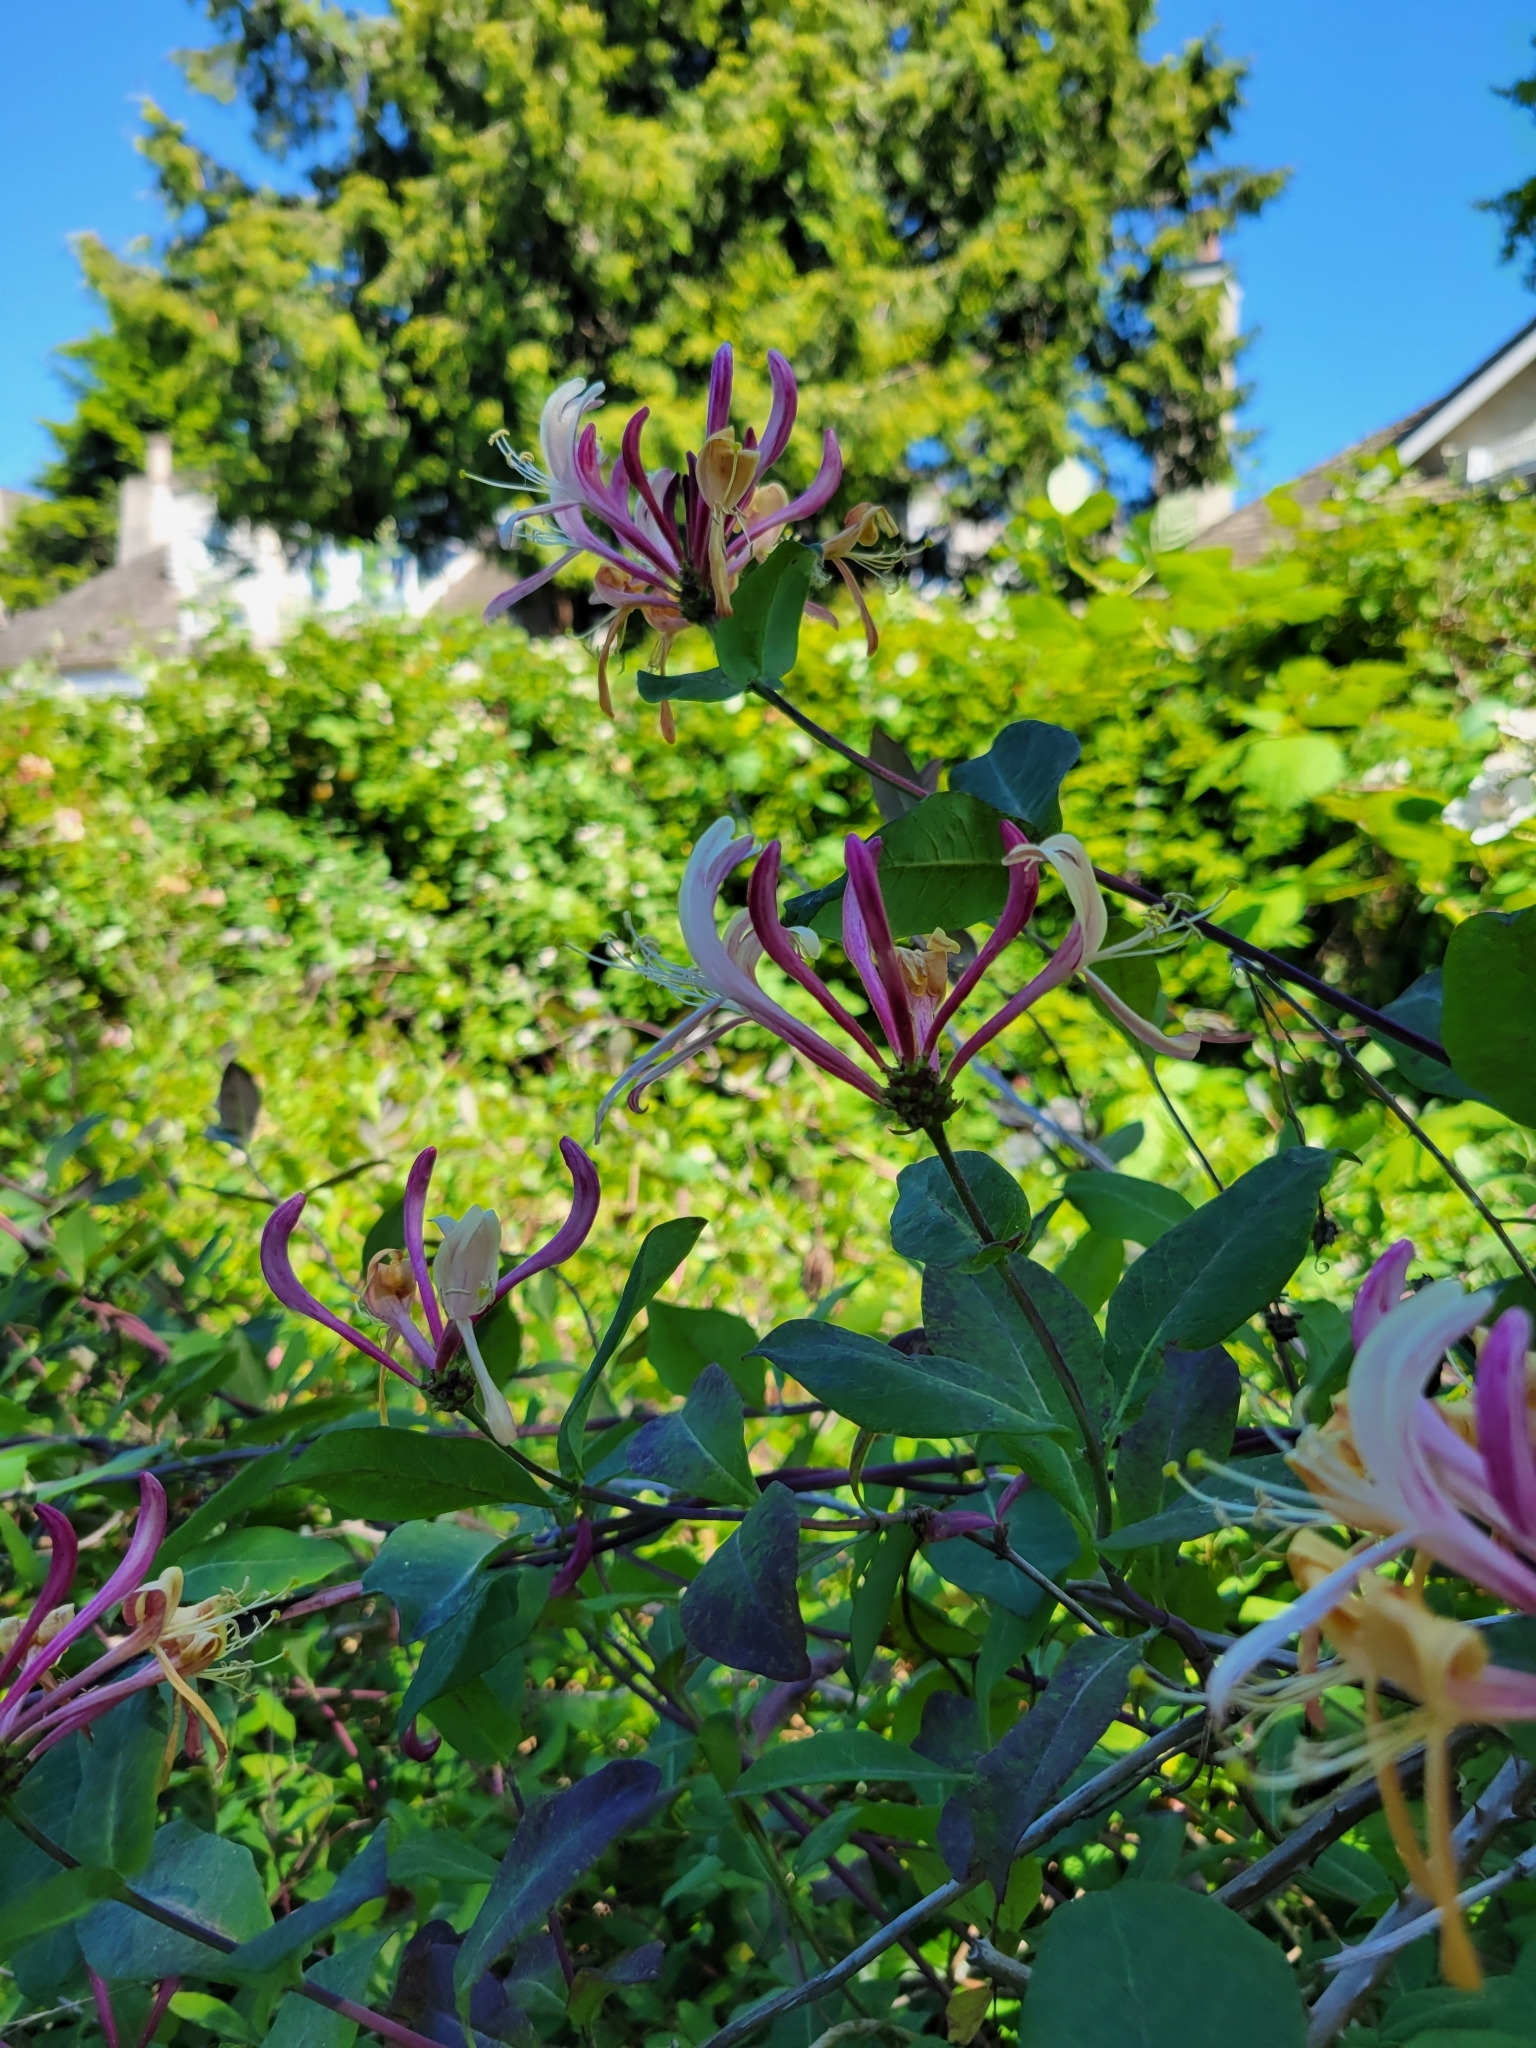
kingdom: Plantae
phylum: Tracheophyta
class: Magnoliopsida
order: Dipsacales
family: Caprifoliaceae
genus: Lonicera
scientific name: Lonicera periclymenum
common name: European honeysuckle
